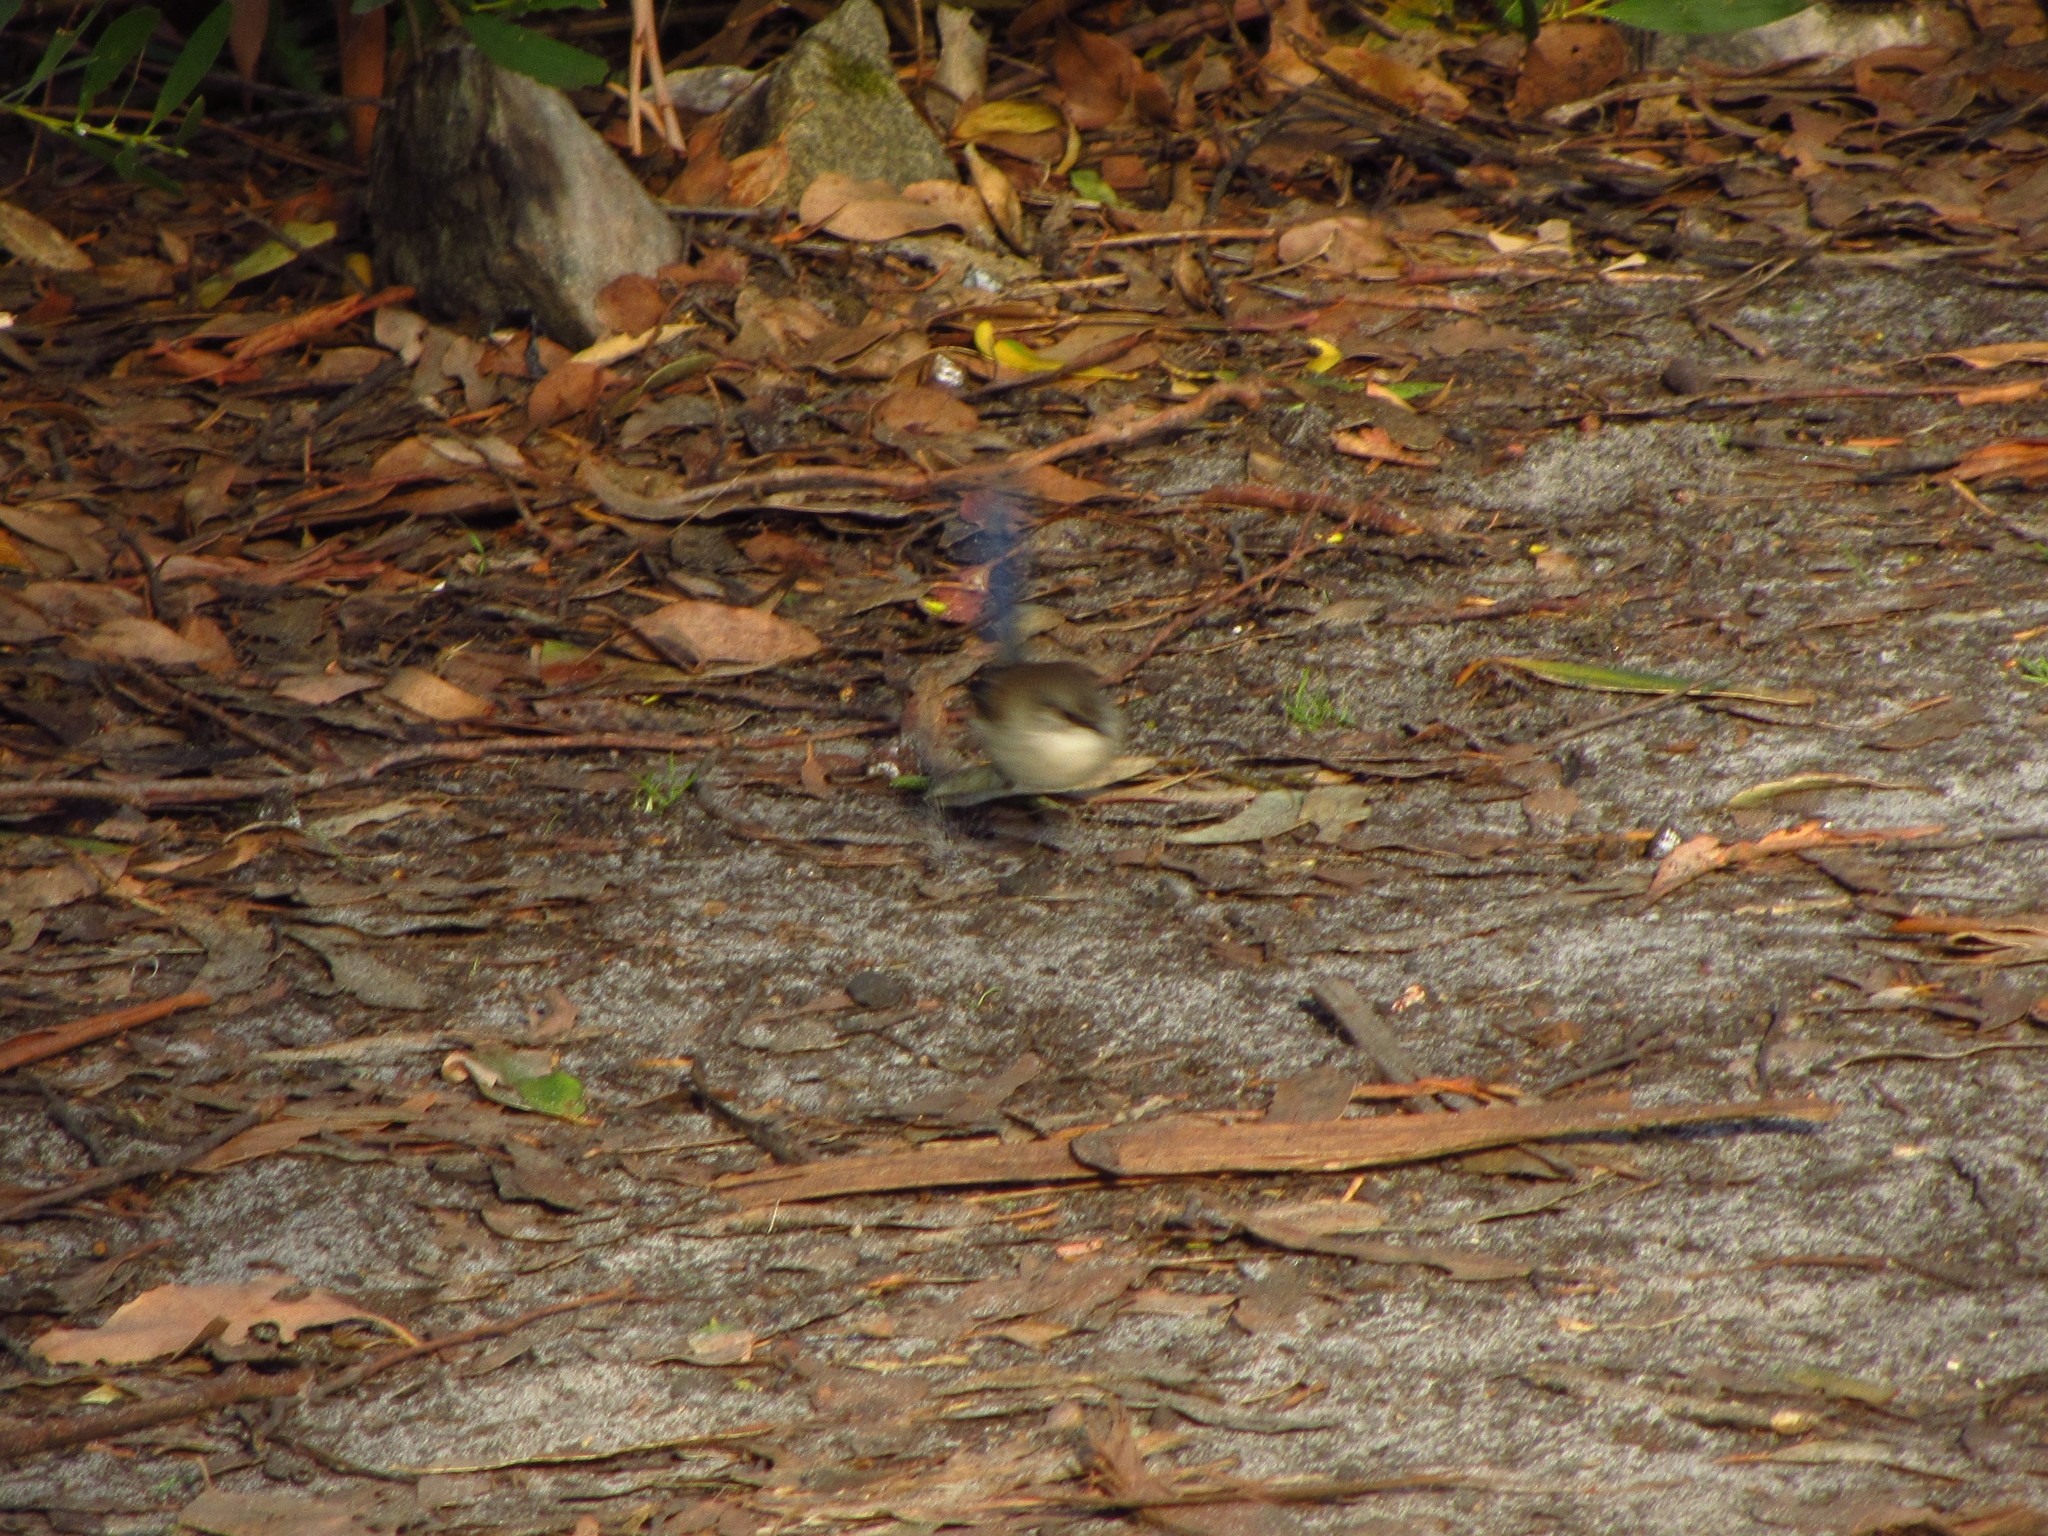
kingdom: Animalia
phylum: Chordata
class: Aves
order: Passeriformes
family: Maluridae
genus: Malurus
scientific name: Malurus cyaneus
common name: Superb fairywren
